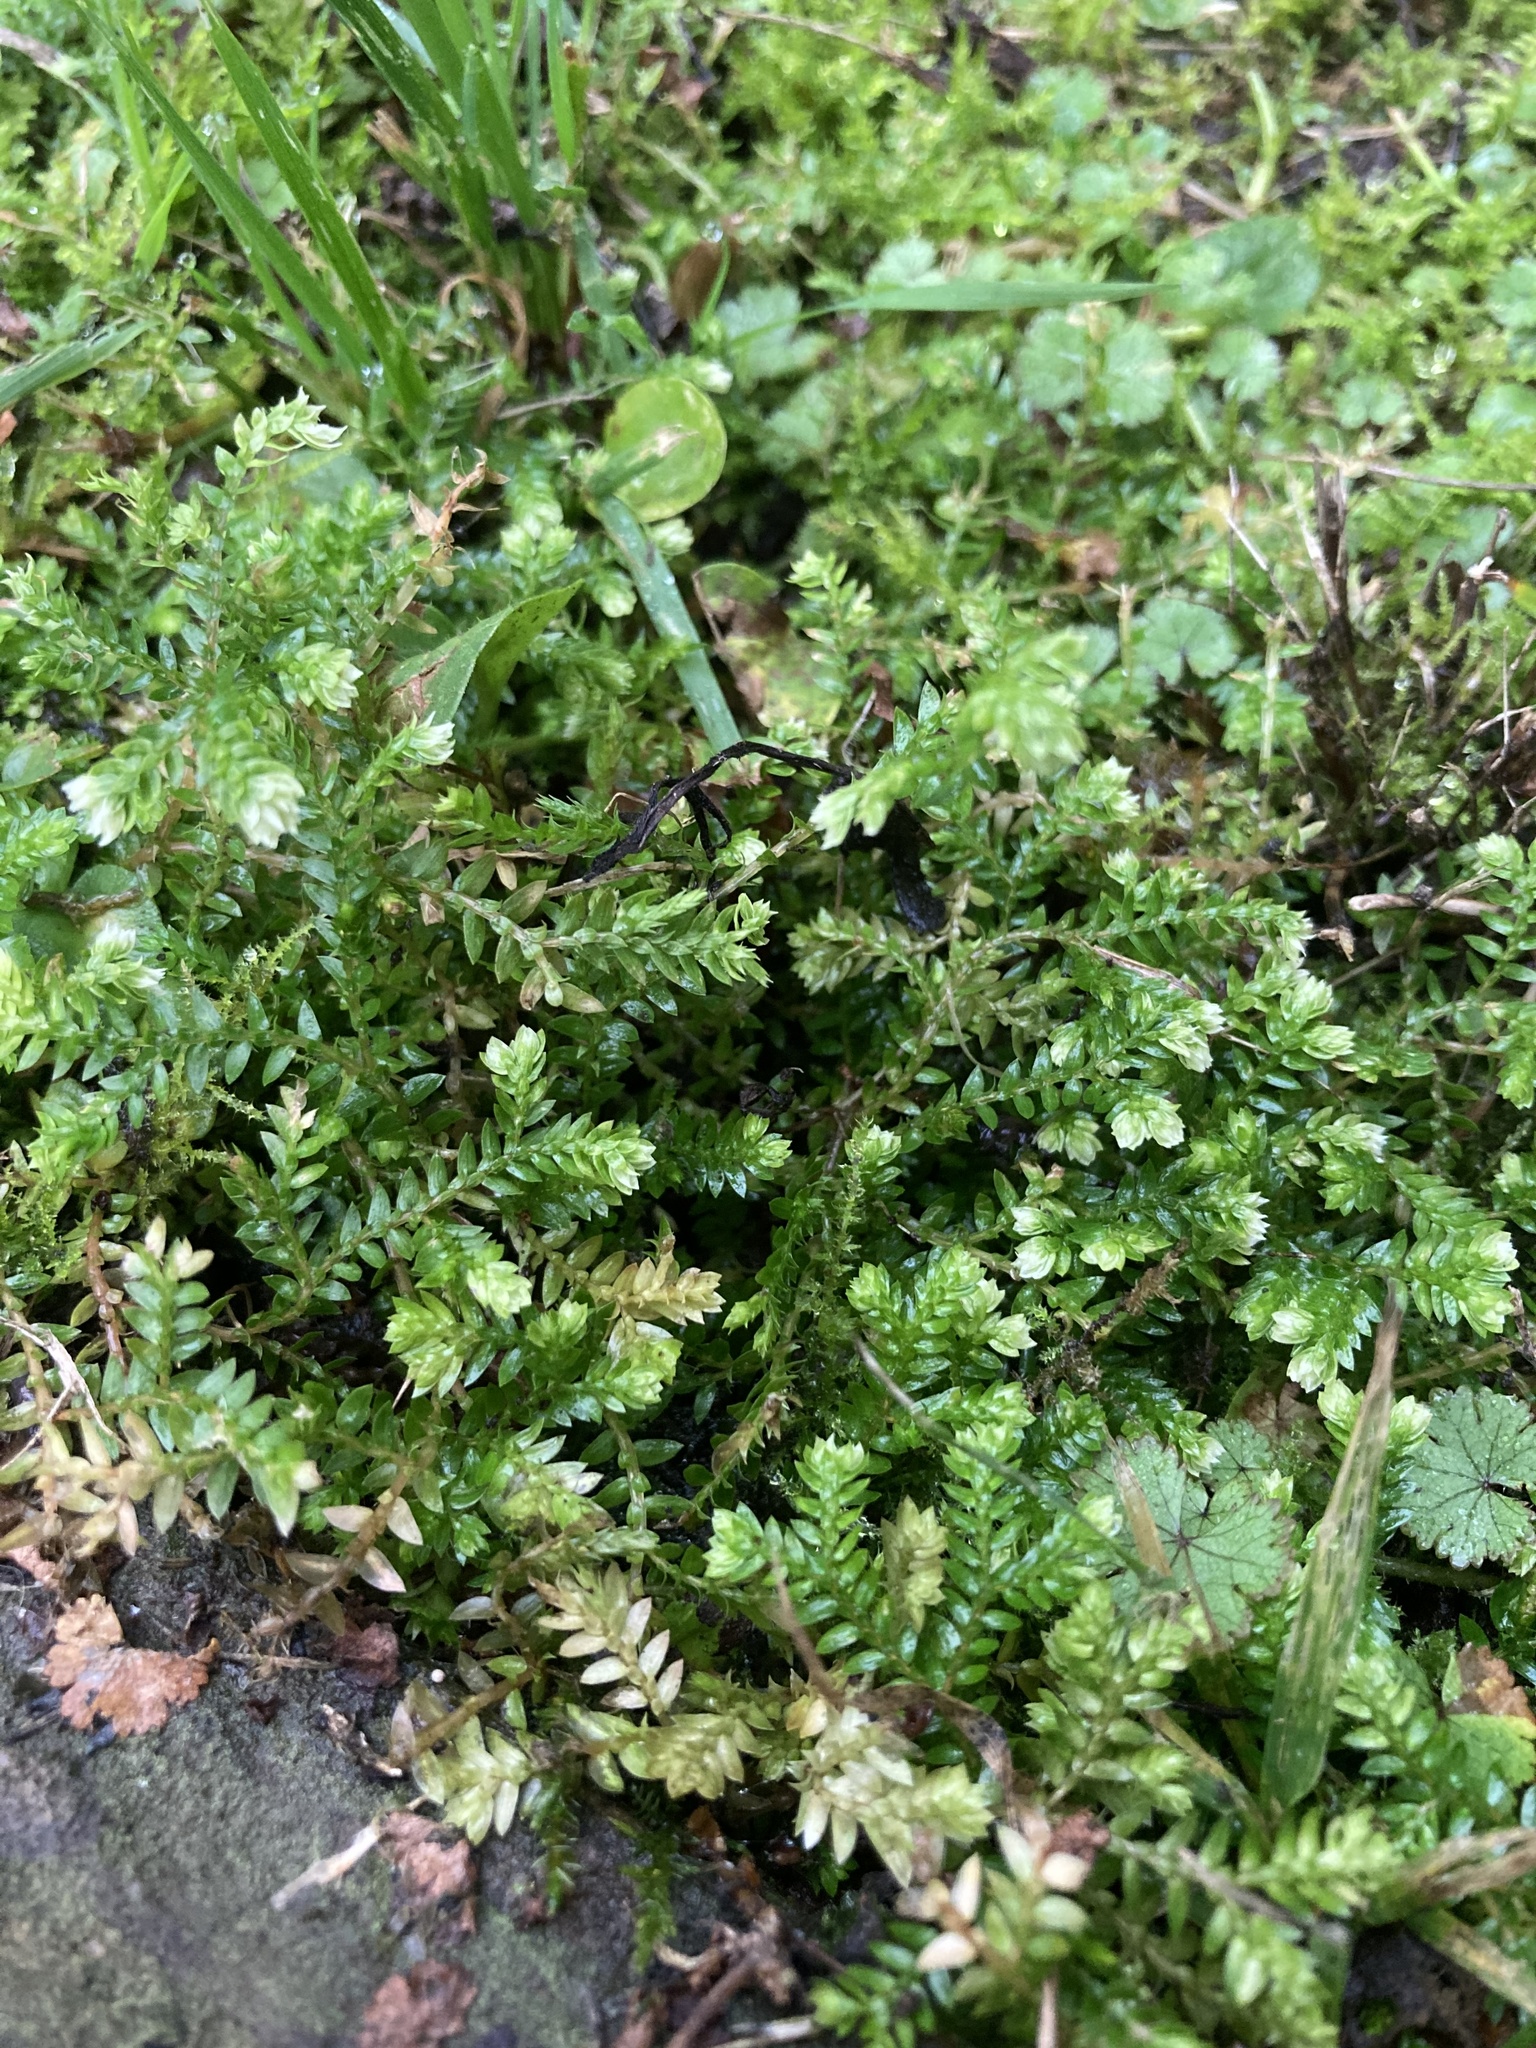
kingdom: Plantae
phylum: Tracheophyta
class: Lycopodiopsida
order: Selaginellales
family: Selaginellaceae
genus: Selaginella
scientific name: Selaginella kraussiana
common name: Krauss' spikemoss
